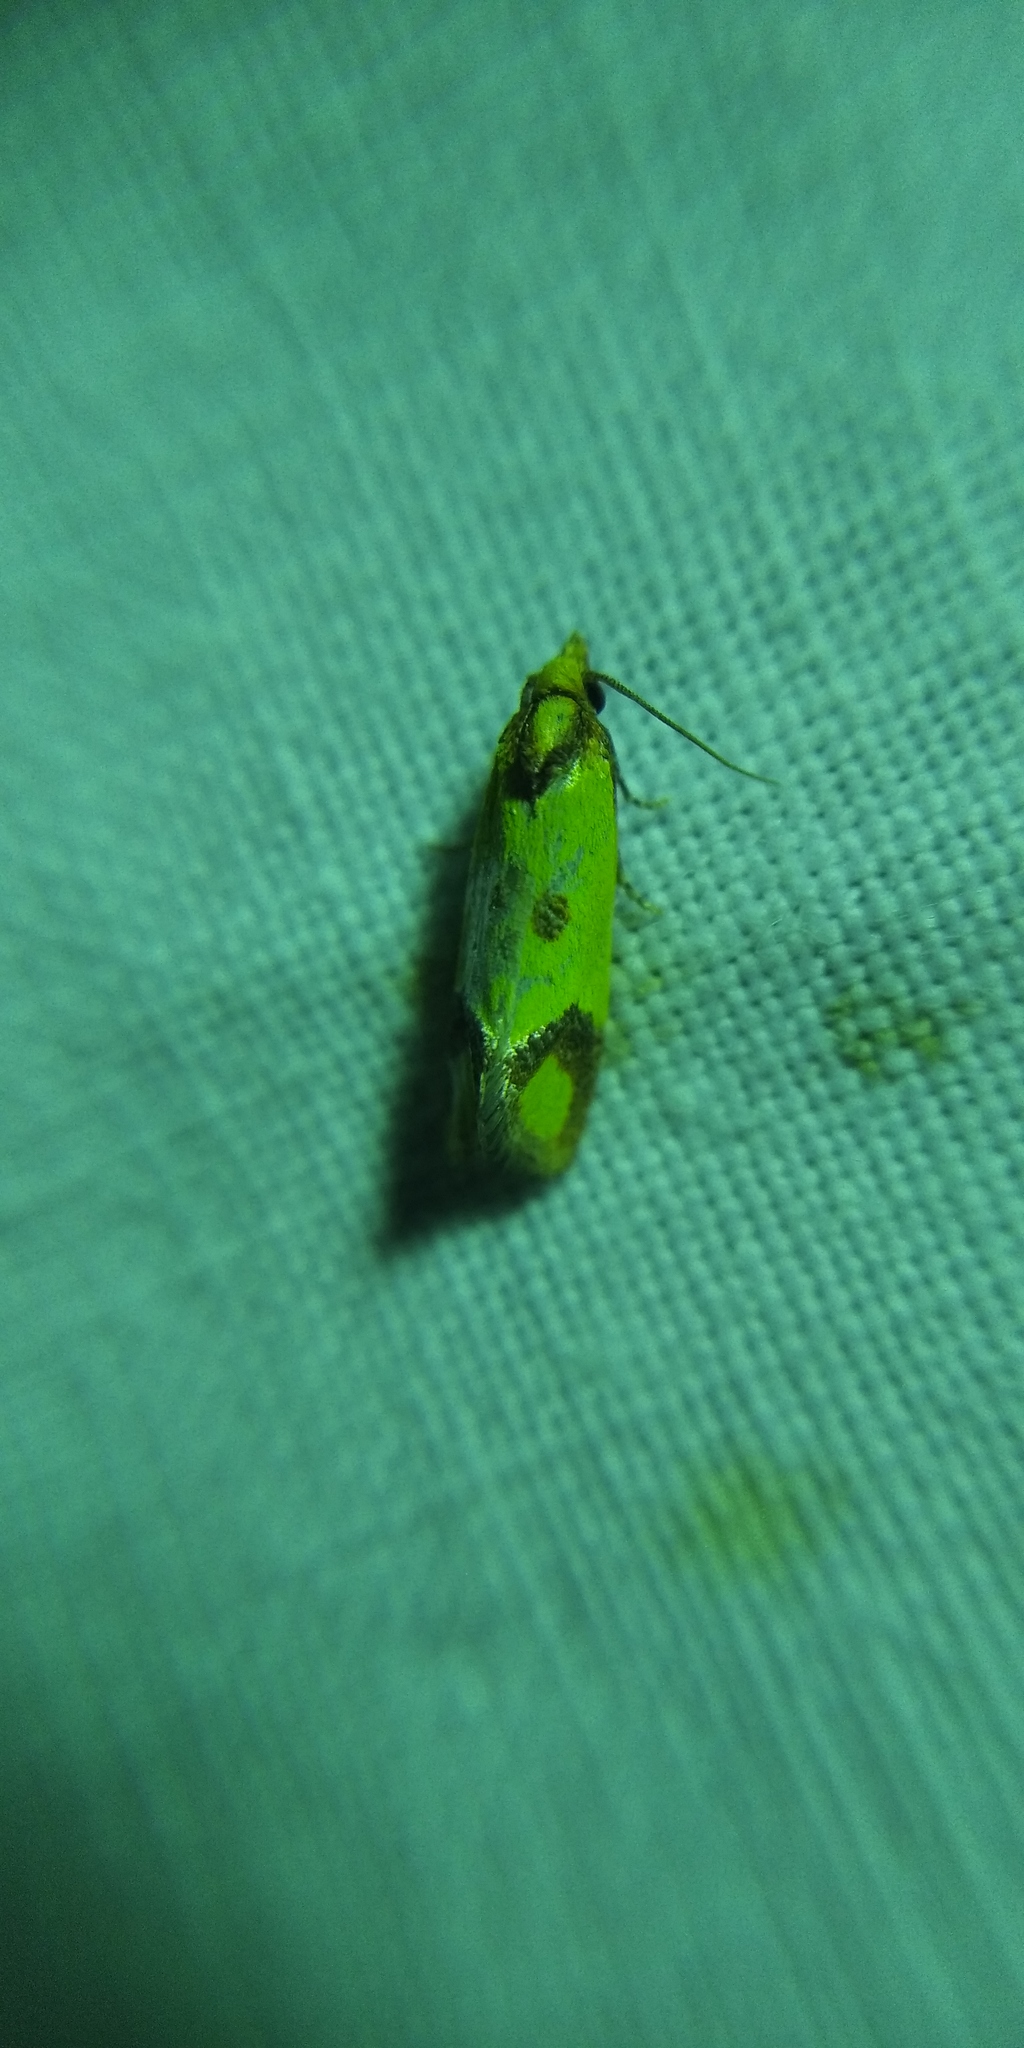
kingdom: Animalia
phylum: Arthropoda
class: Insecta
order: Lepidoptera
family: Tortricidae
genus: Agapeta
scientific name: Agapeta zoegana
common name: Sulfur knapweed root moth
